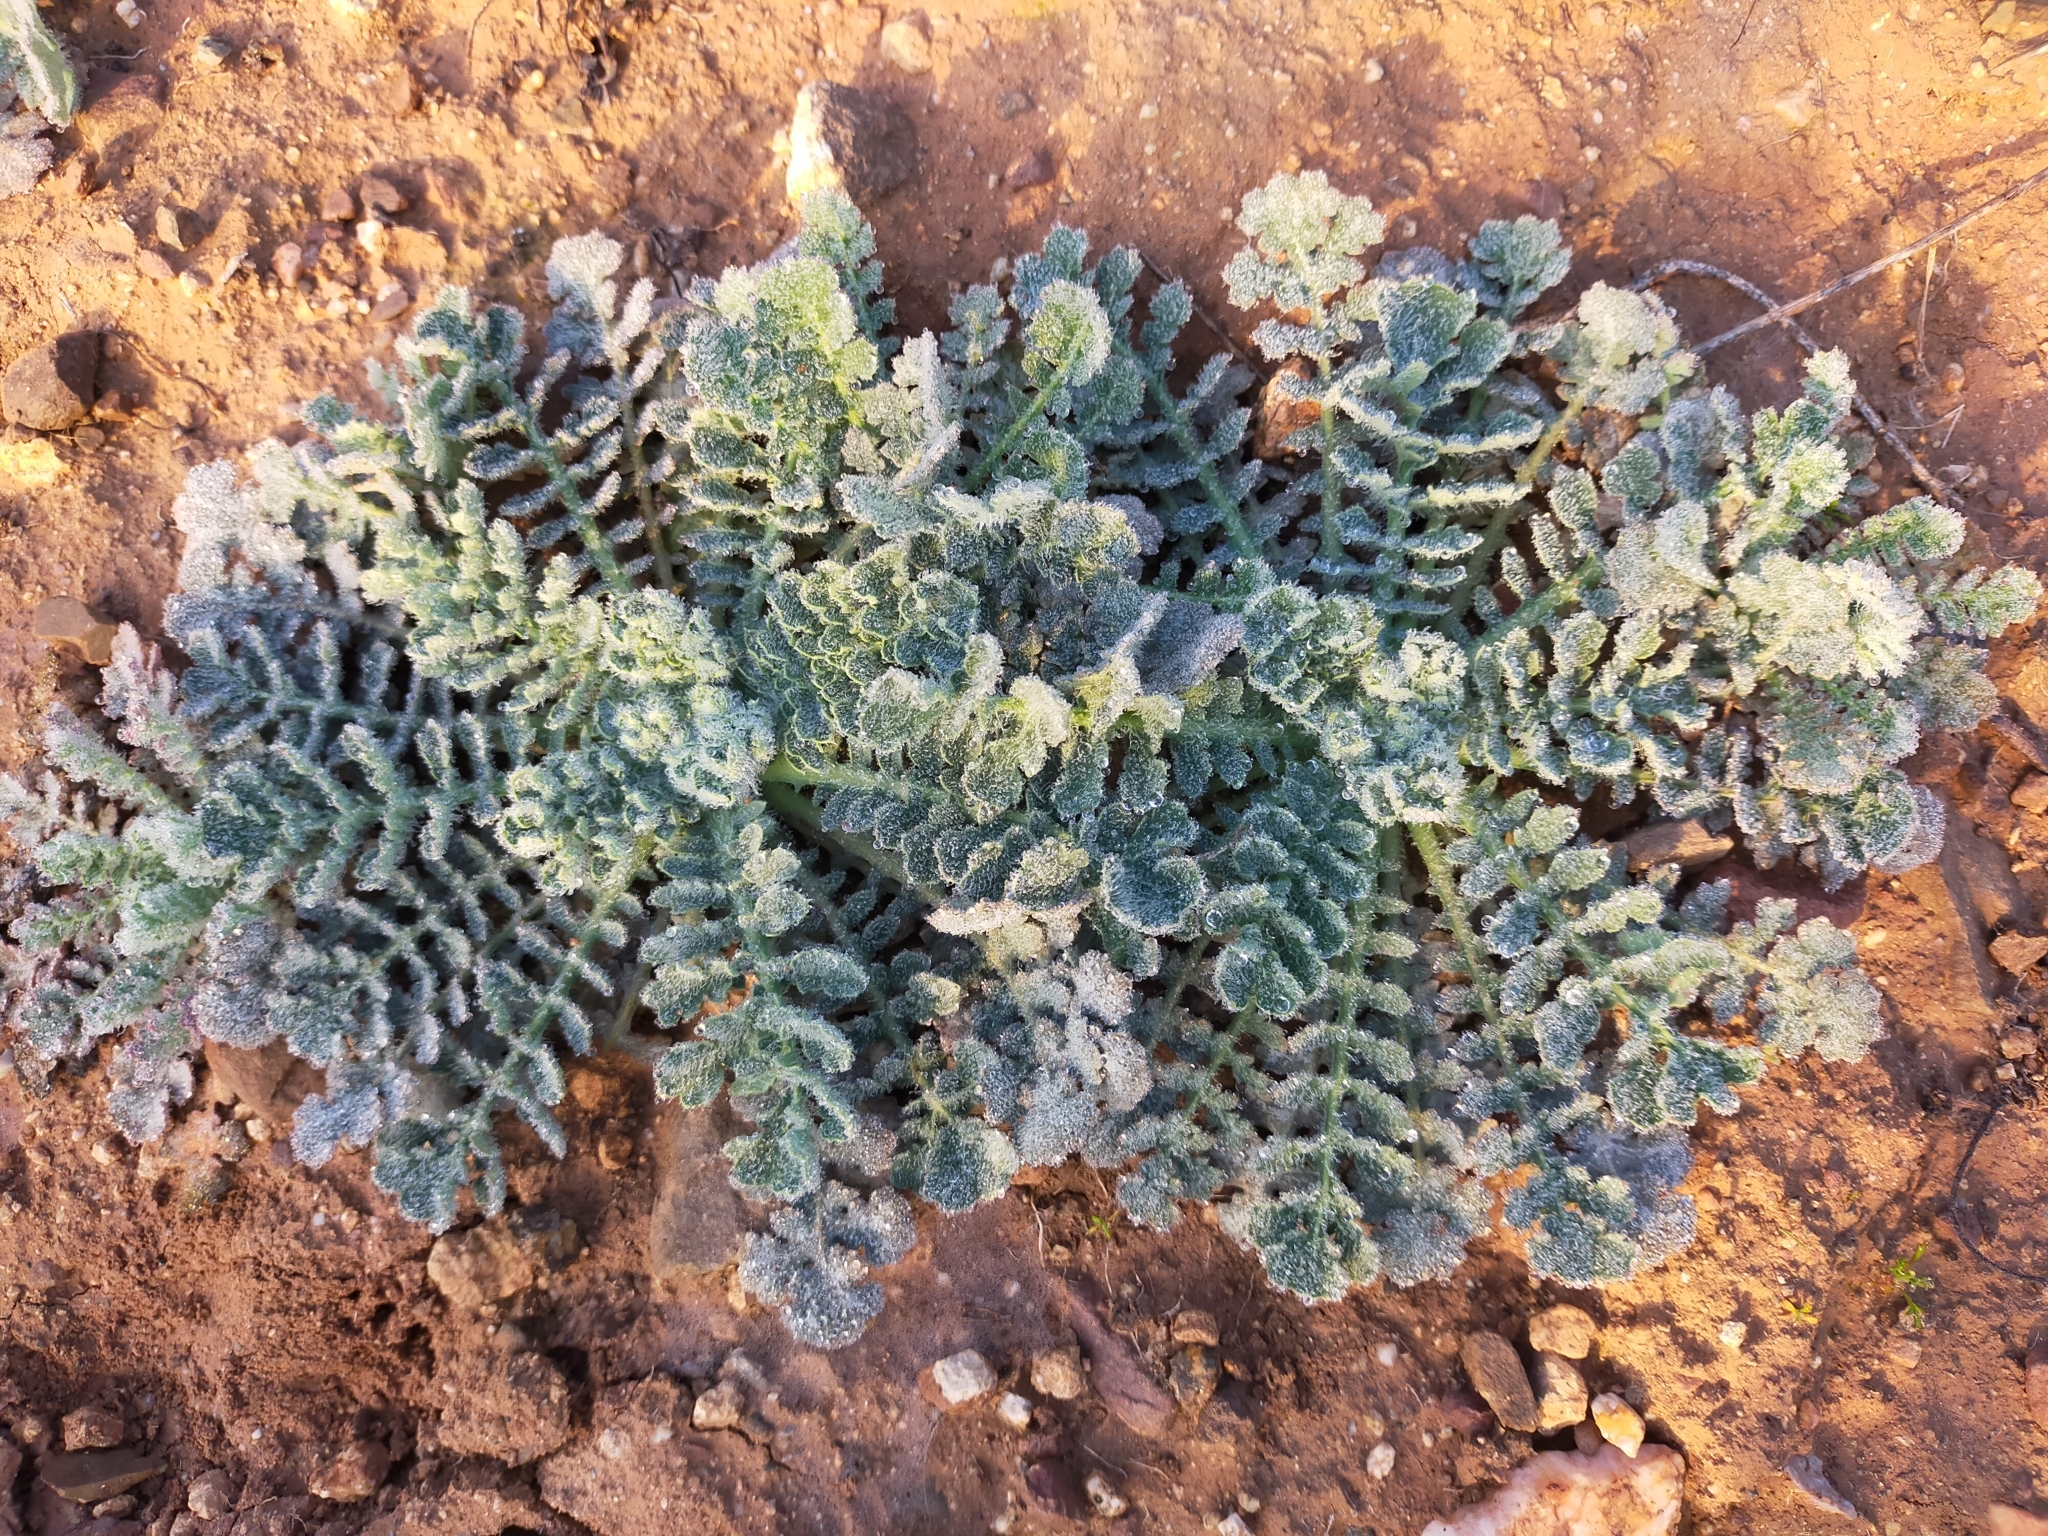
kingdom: Plantae
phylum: Tracheophyta
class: Magnoliopsida
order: Ranunculales
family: Papaveraceae
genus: Glaucium
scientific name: Glaucium corniculatum
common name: Red horned-poppy
